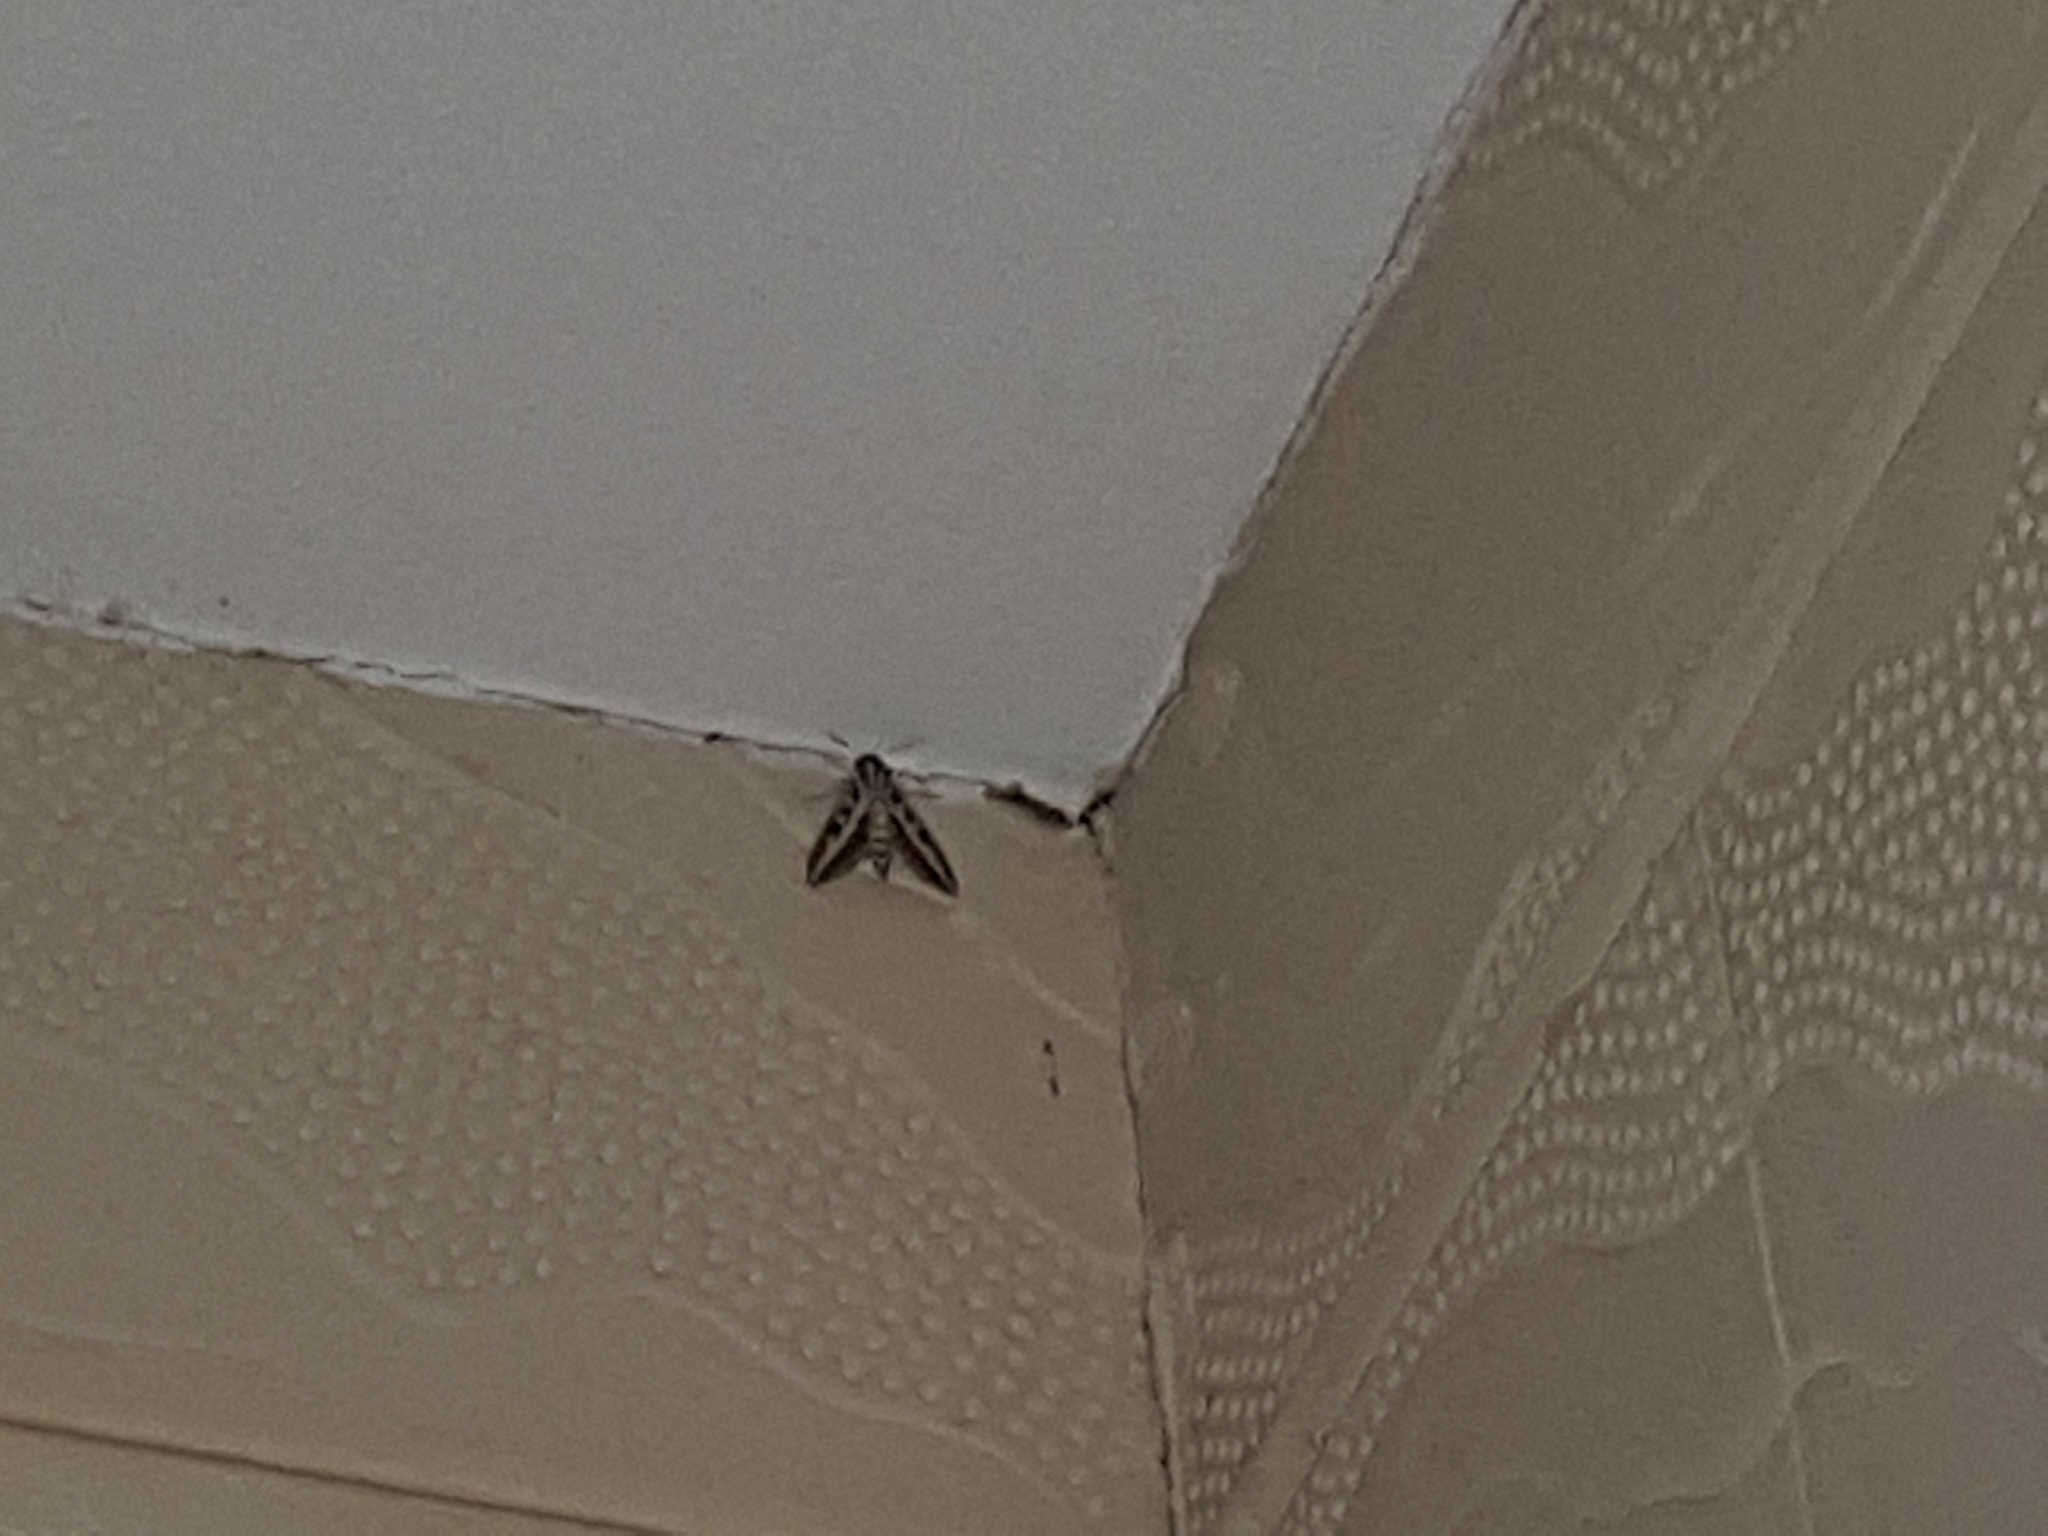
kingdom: Animalia
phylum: Arthropoda
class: Insecta
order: Lepidoptera
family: Sphingidae
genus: Hyles
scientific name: Hyles livornica
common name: Striped hawk-moth
